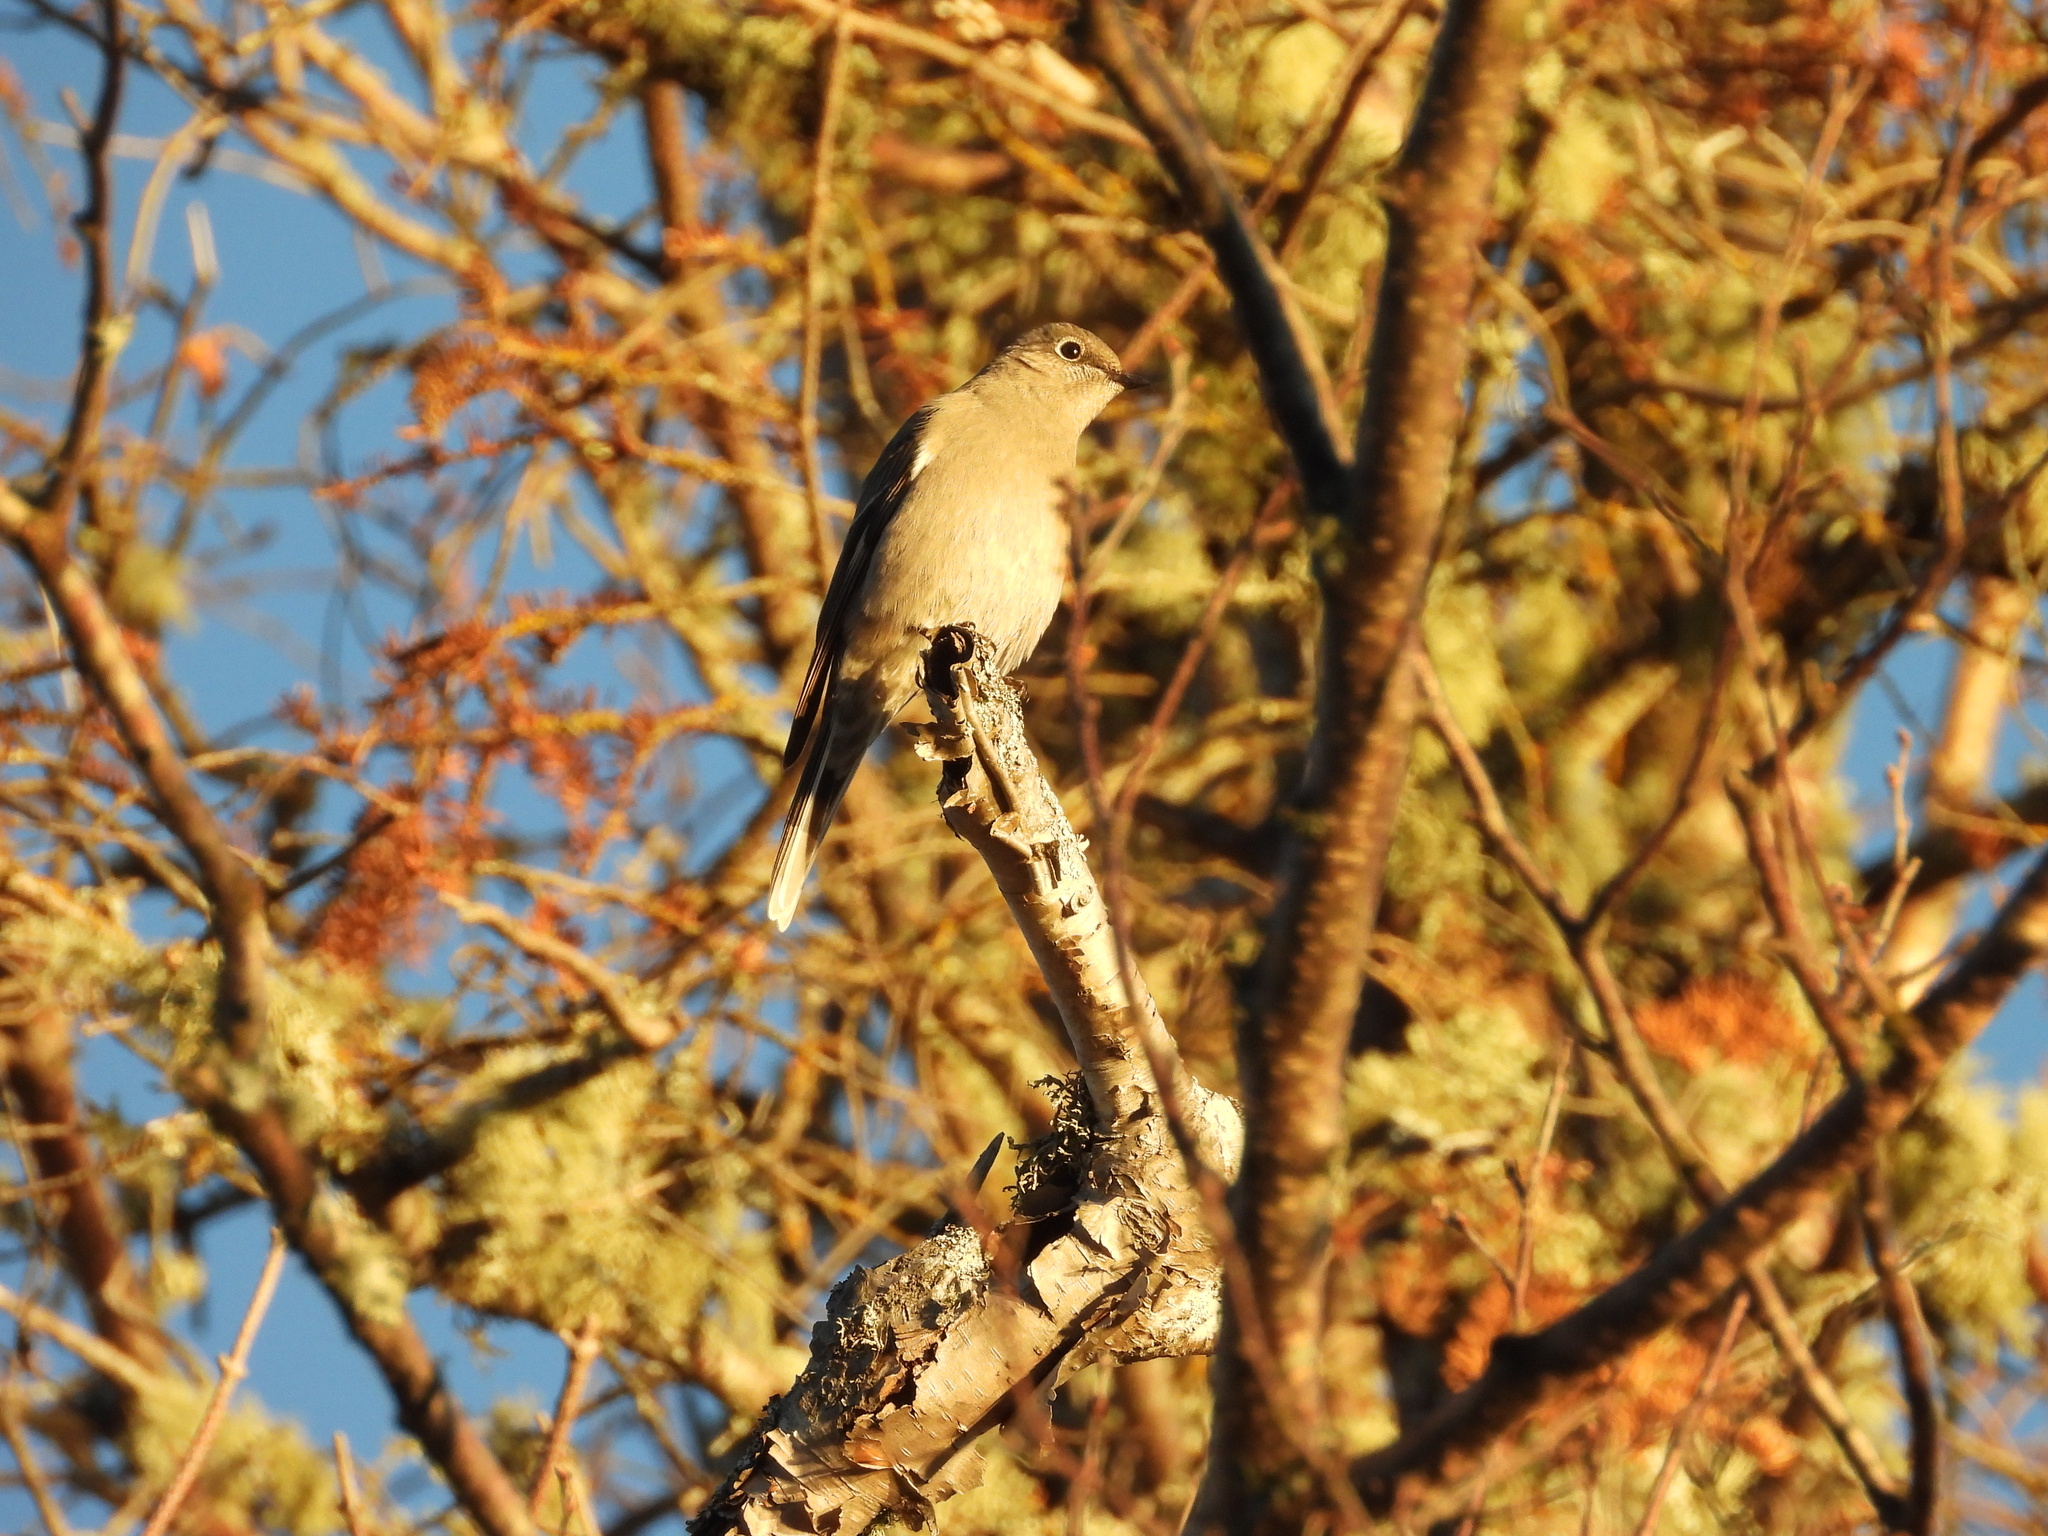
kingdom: Animalia
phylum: Chordata
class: Aves
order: Passeriformes
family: Turdidae
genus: Myadestes
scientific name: Myadestes townsendi
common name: Townsend's solitaire
